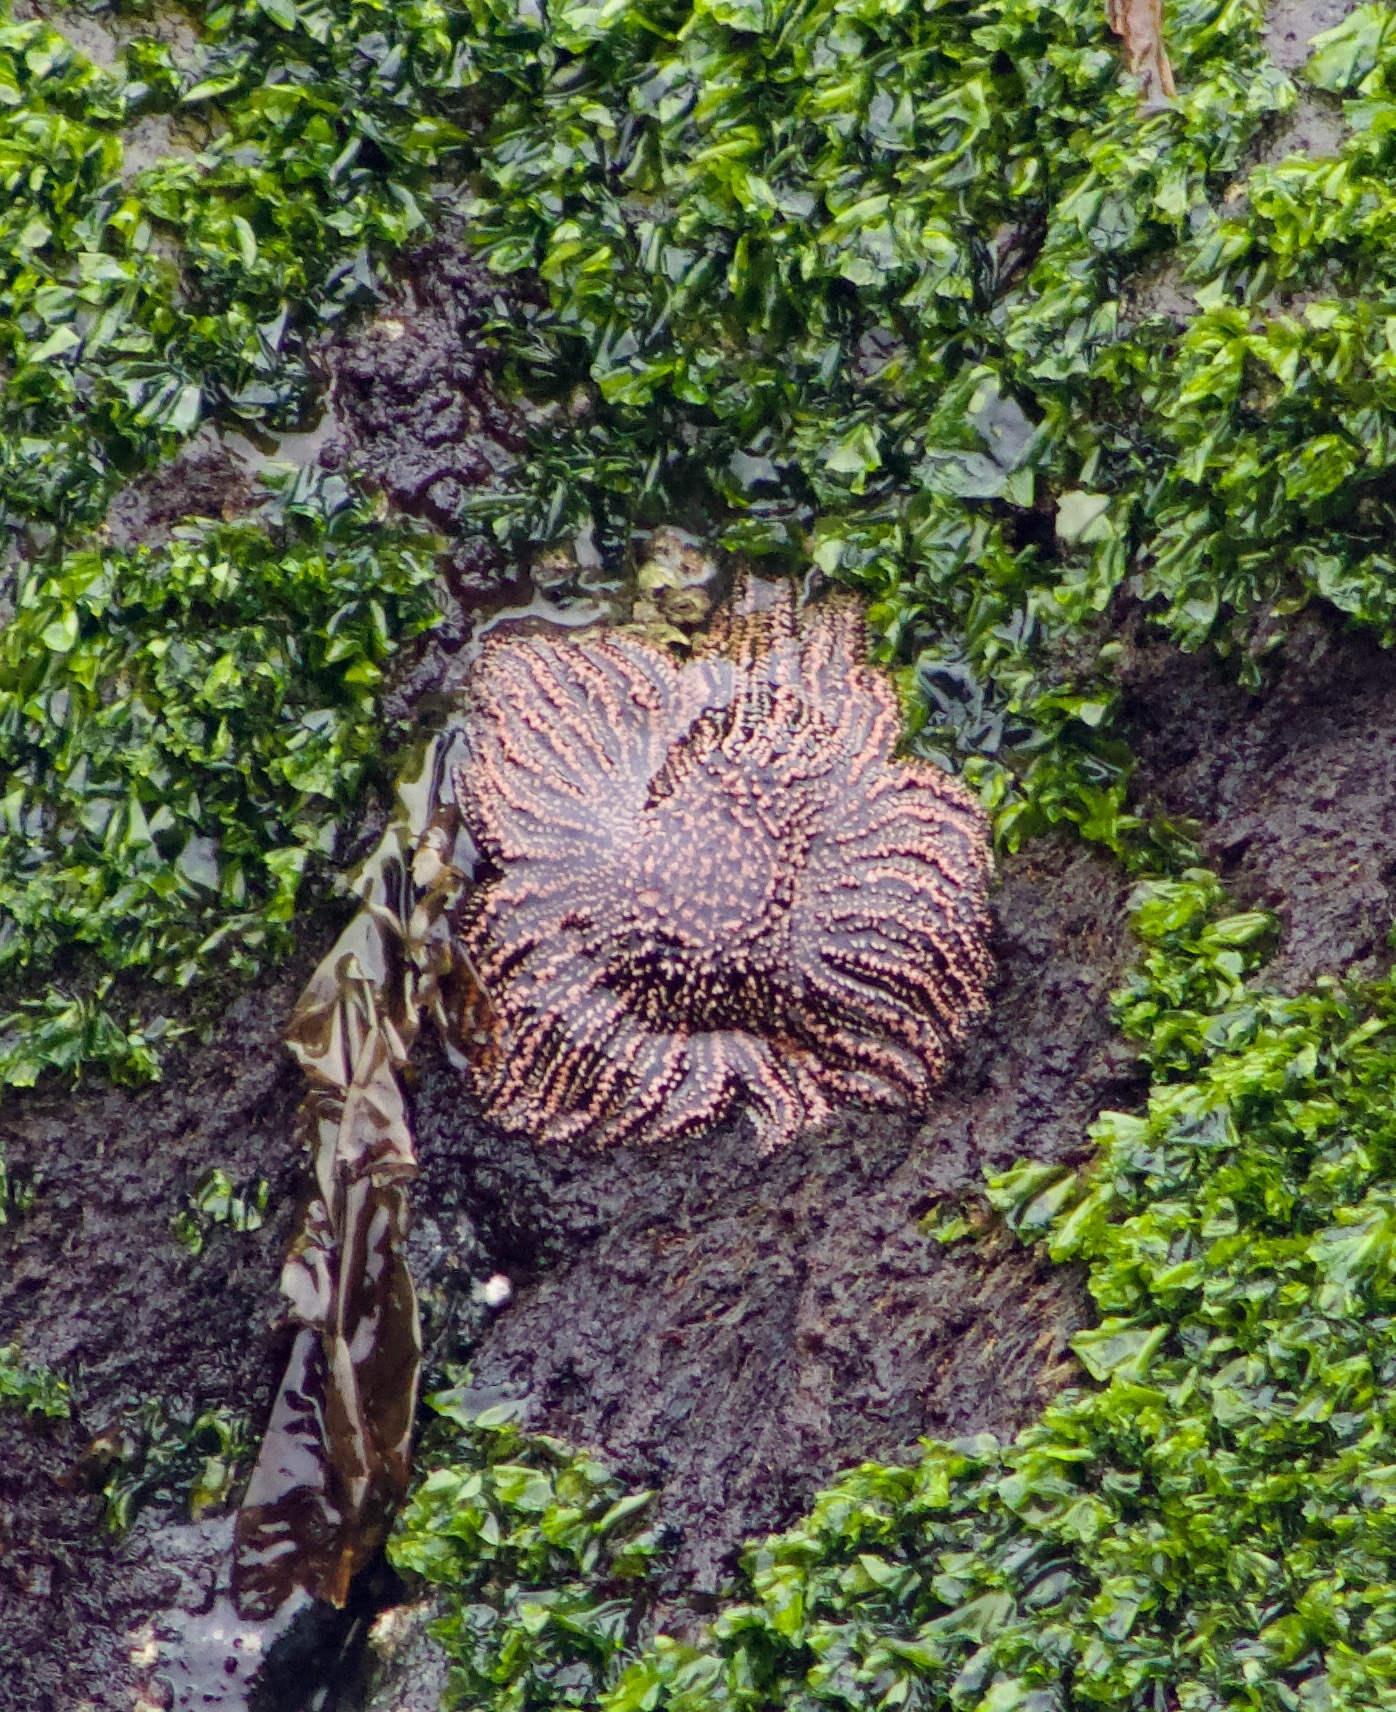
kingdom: Animalia
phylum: Echinodermata
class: Asteroidea
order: Forcipulatida
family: Heliasteridae
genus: Heliaster
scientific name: Heliaster helianthus
